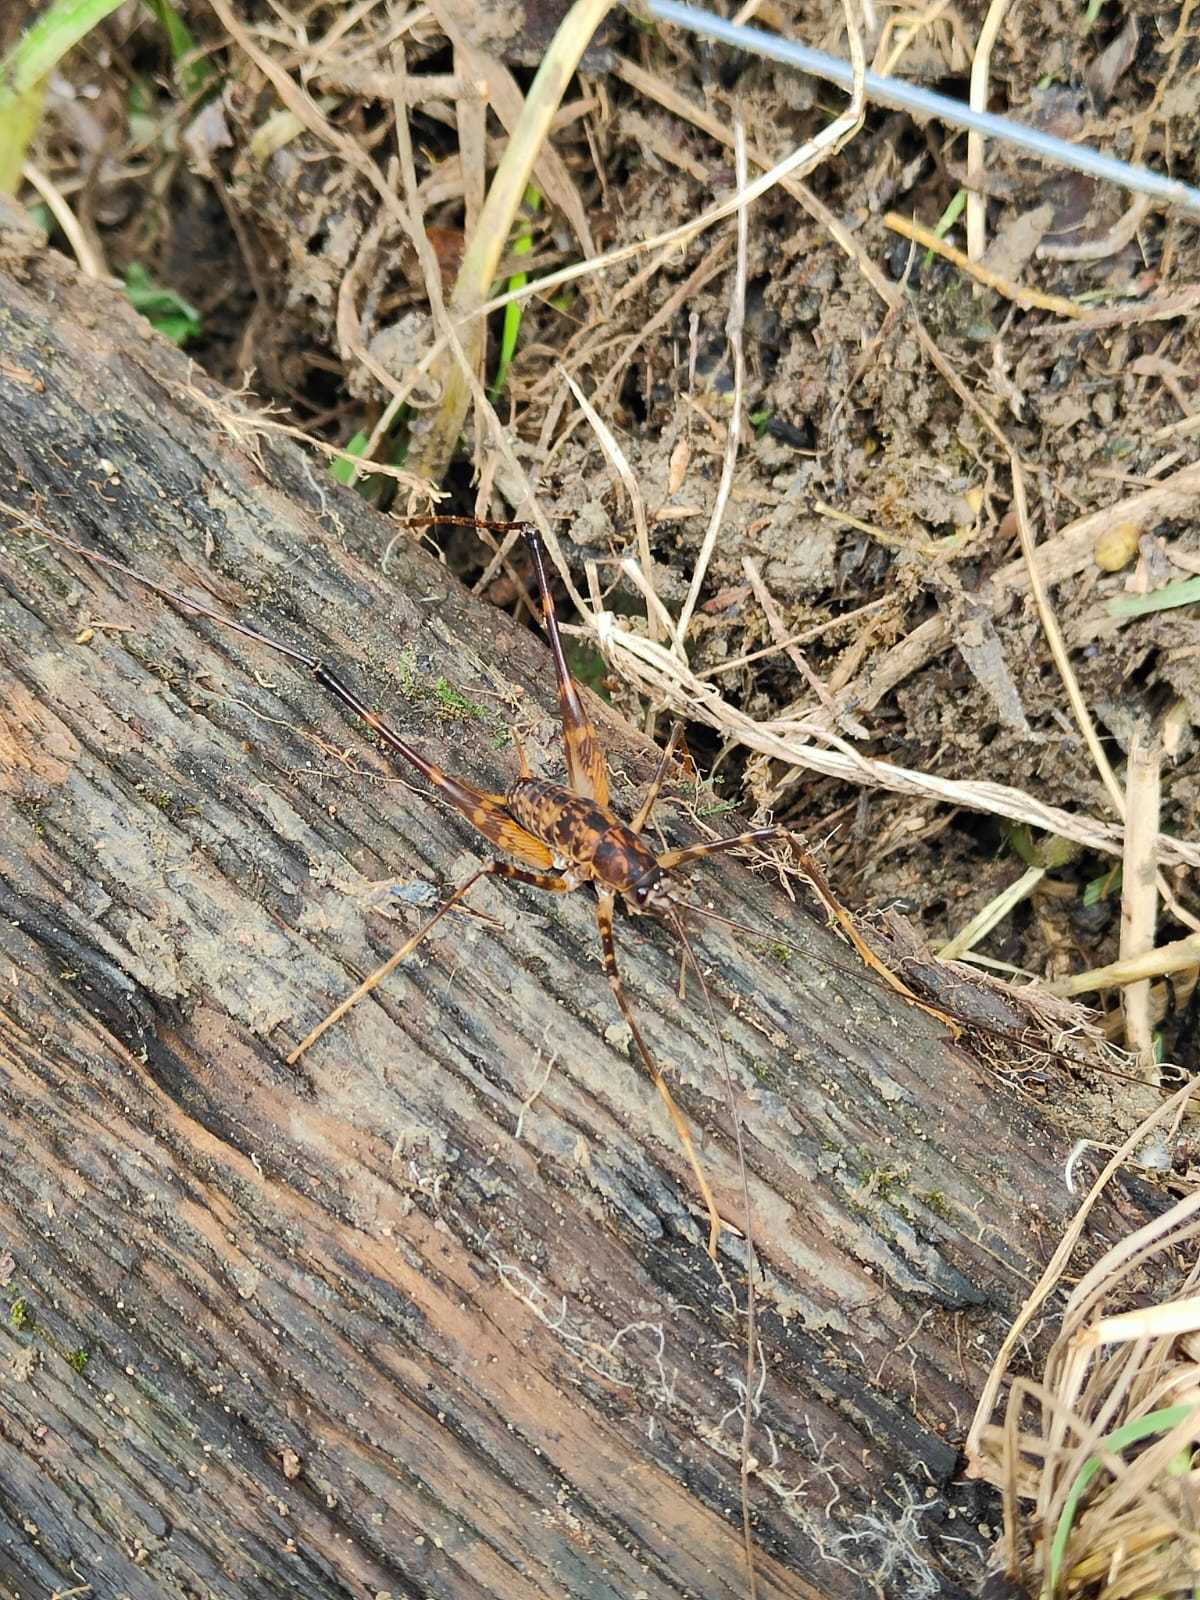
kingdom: Animalia
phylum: Arthropoda
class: Insecta
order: Orthoptera
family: Rhaphidophoridae
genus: Pachyrhamma
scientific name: Pachyrhamma cavernae
